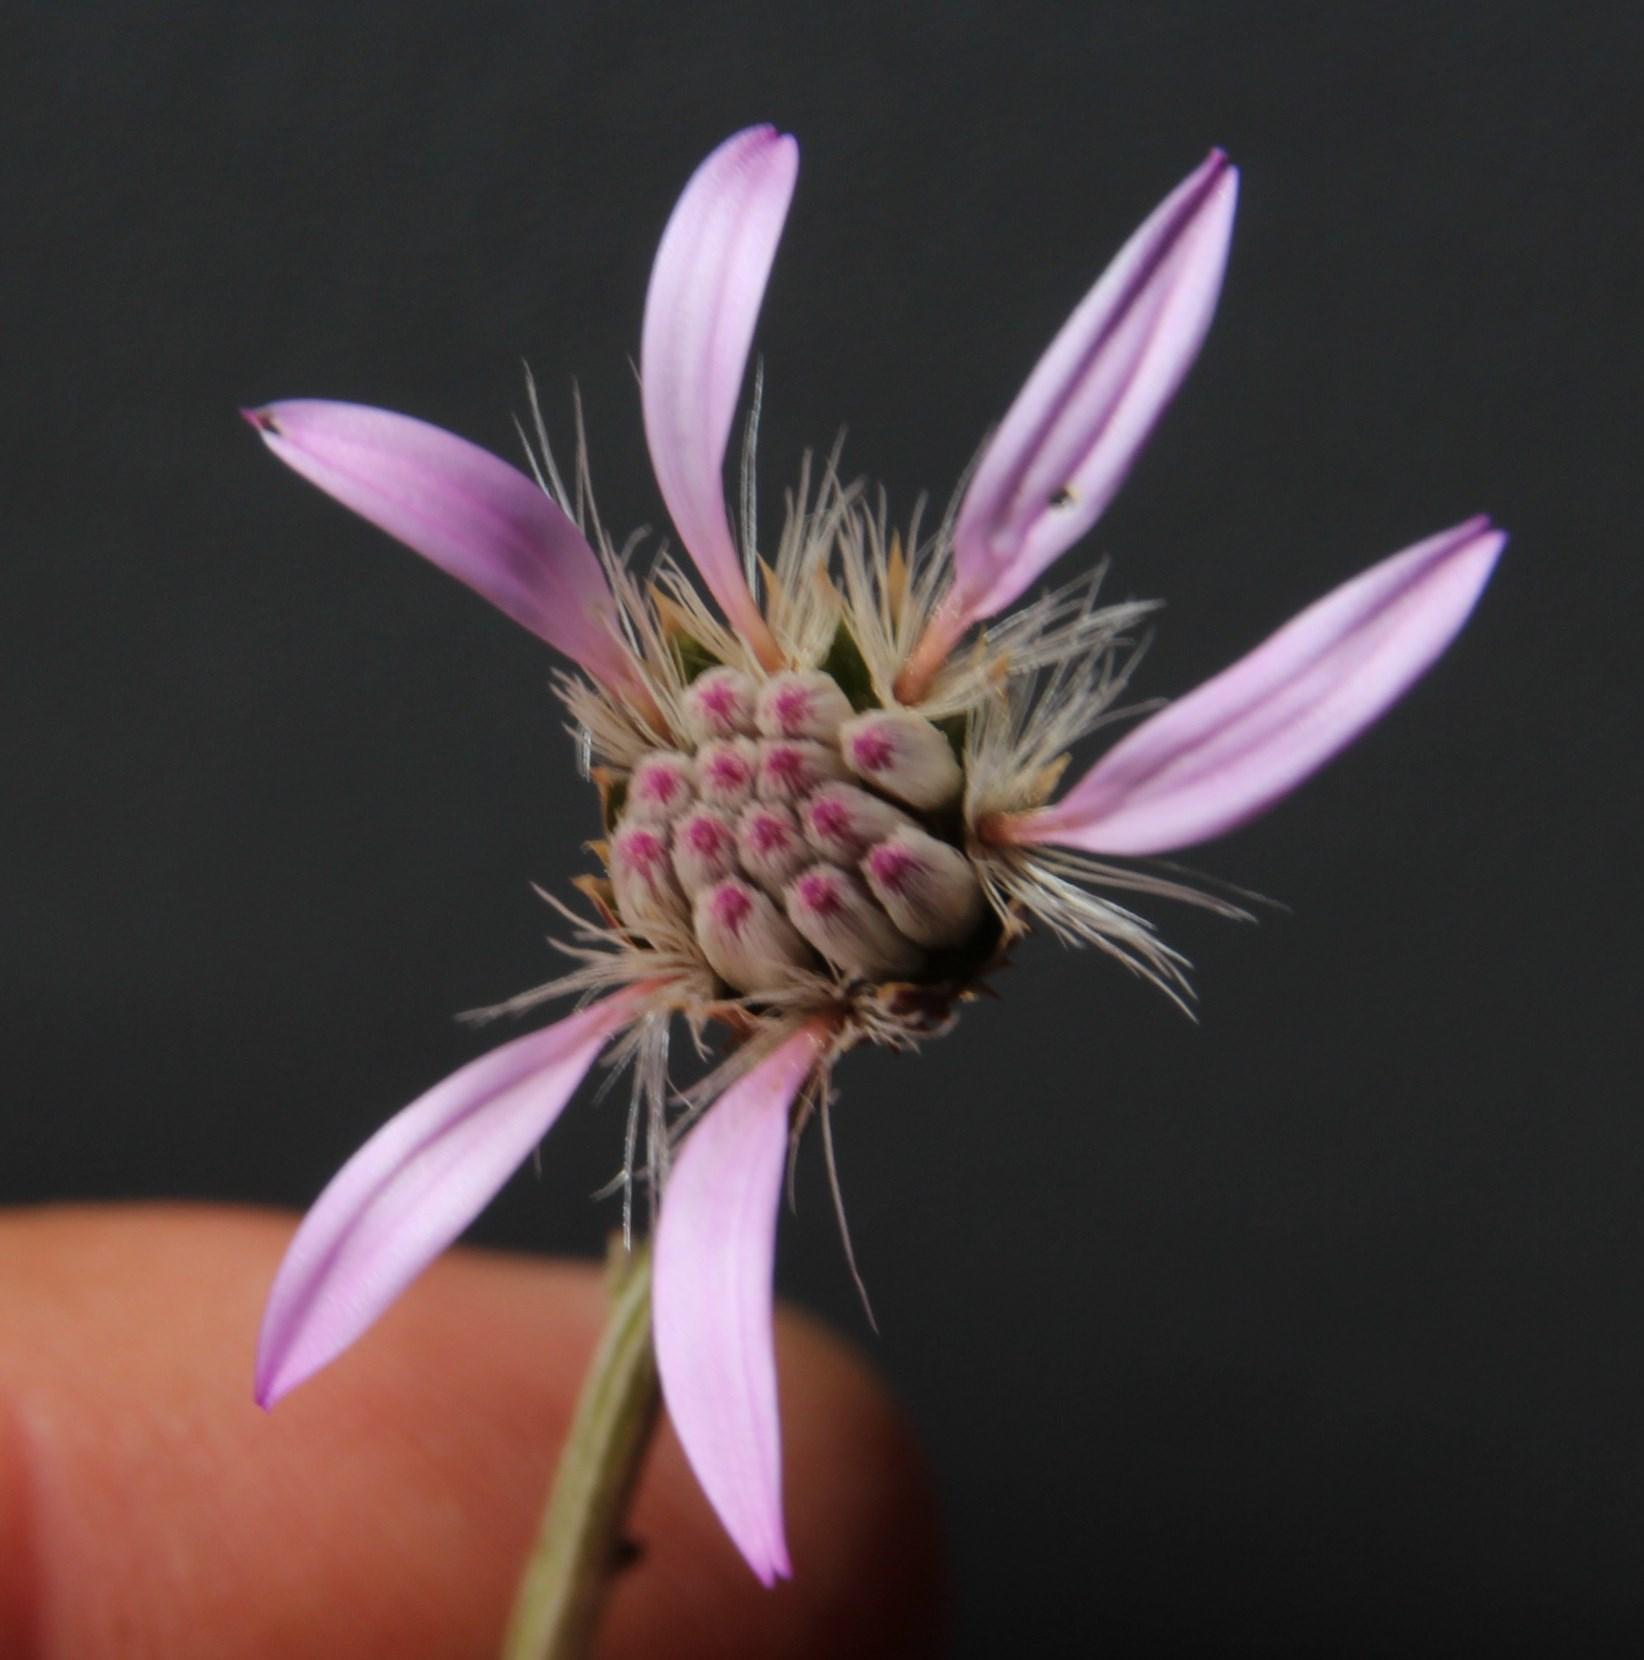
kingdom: Plantae
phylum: Tracheophyta
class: Magnoliopsida
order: Asterales
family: Asteraceae
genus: Dicoma
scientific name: Dicoma picta
